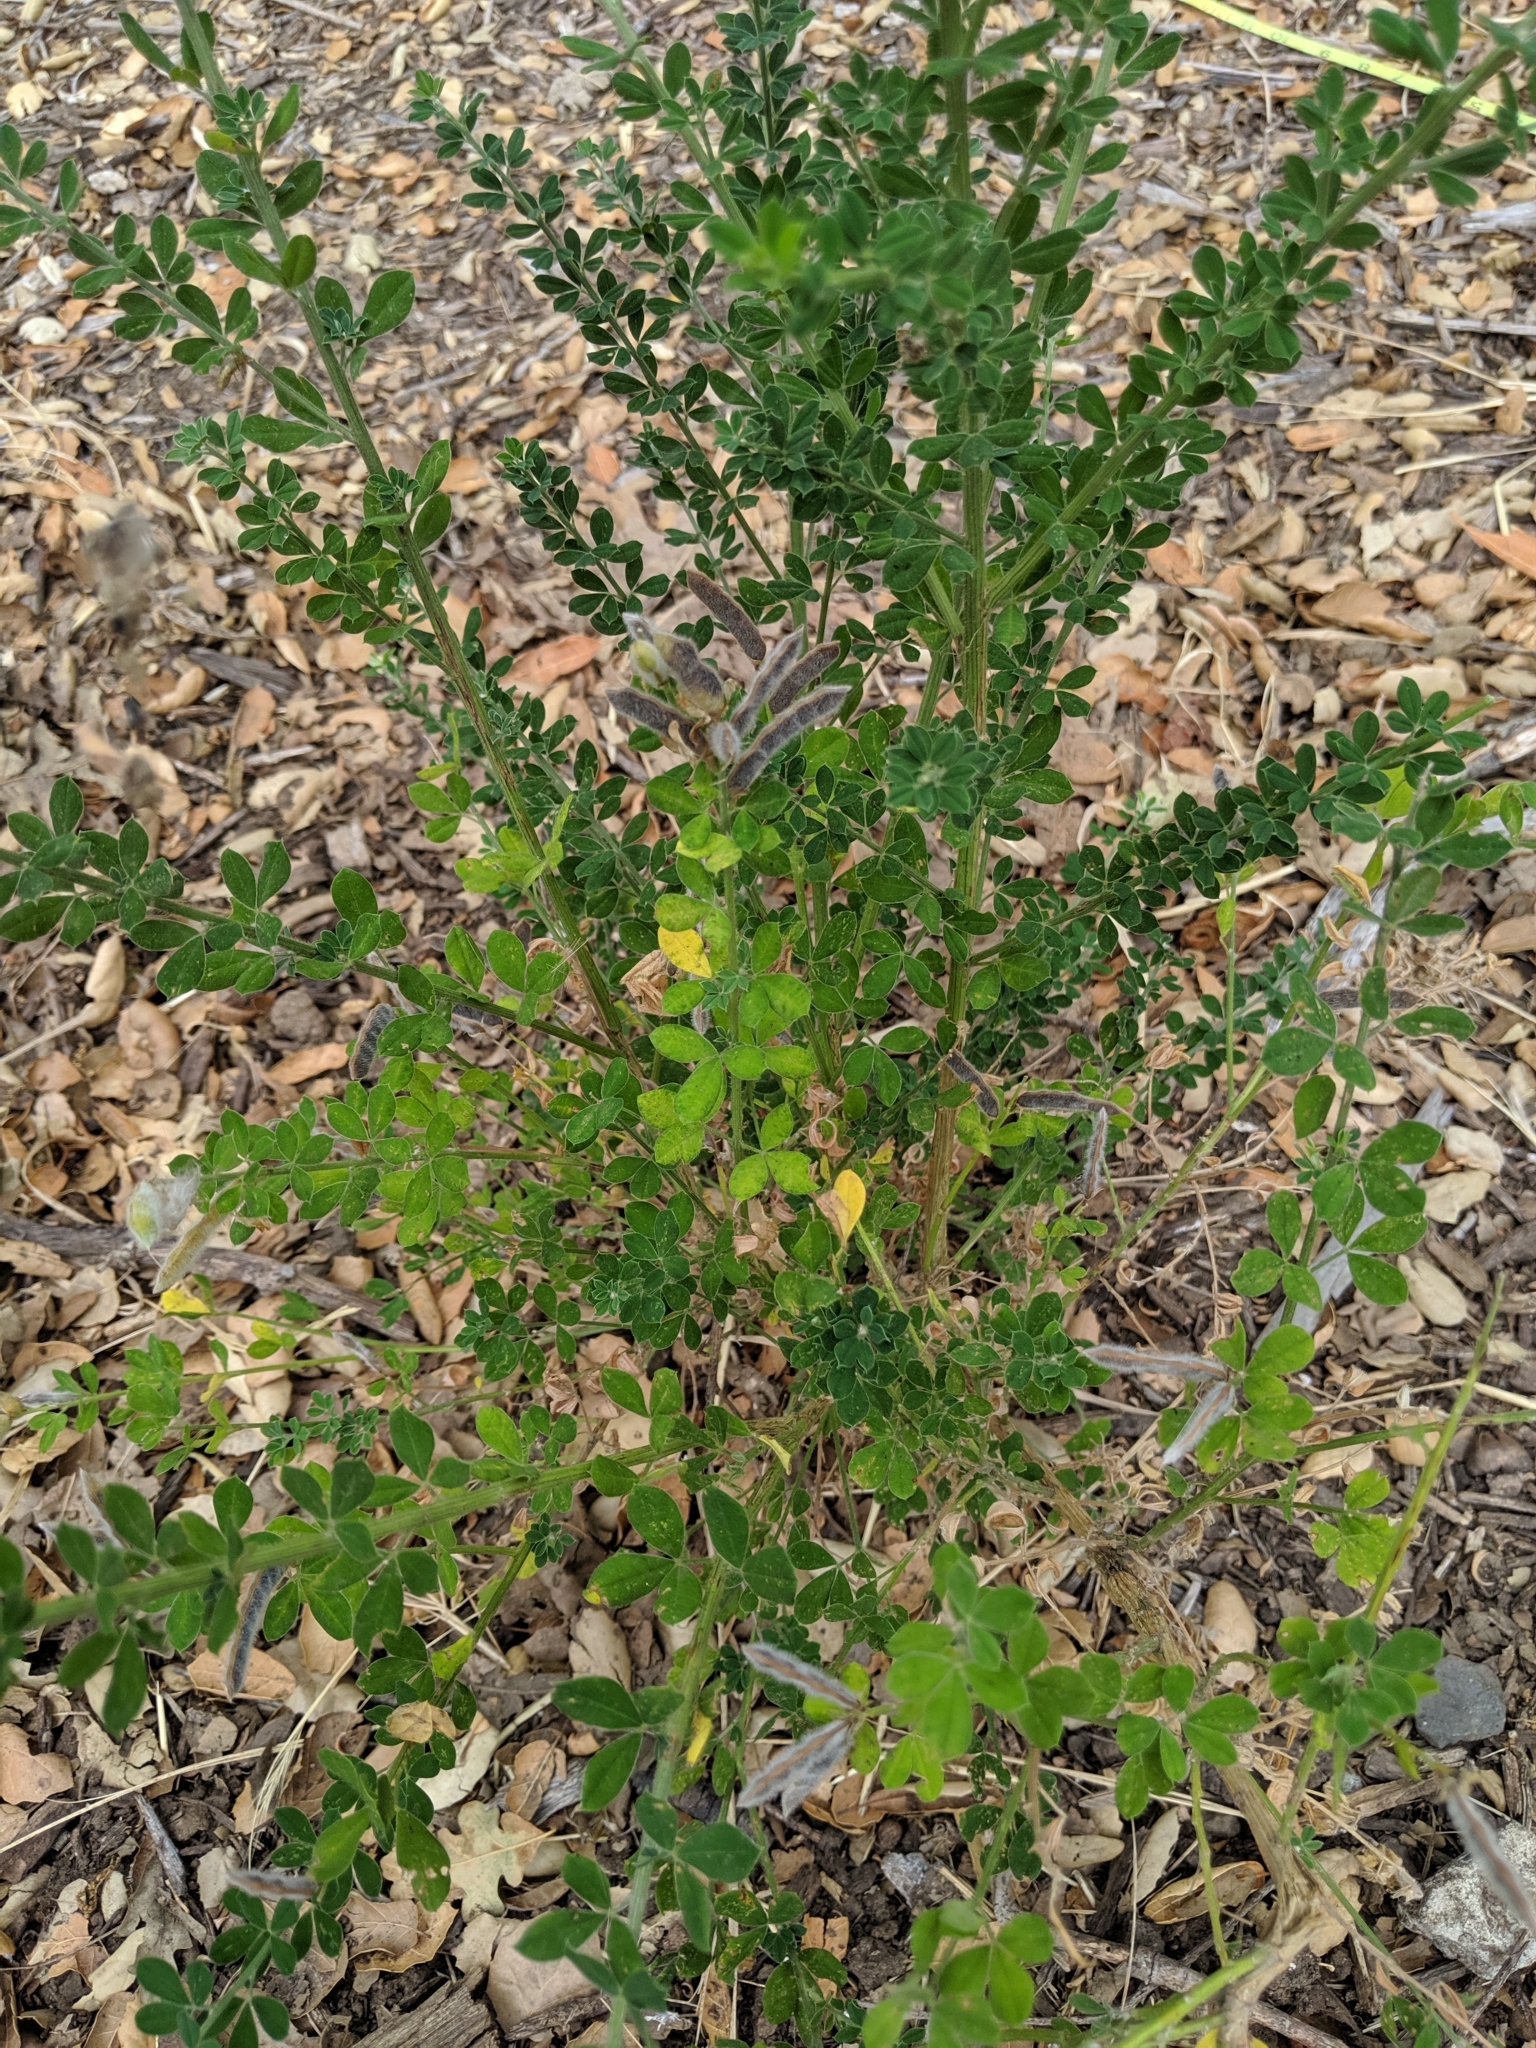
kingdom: Plantae
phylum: Tracheophyta
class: Magnoliopsida
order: Fabales
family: Fabaceae
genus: Genista
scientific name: Genista monspessulana
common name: Montpellier broom
